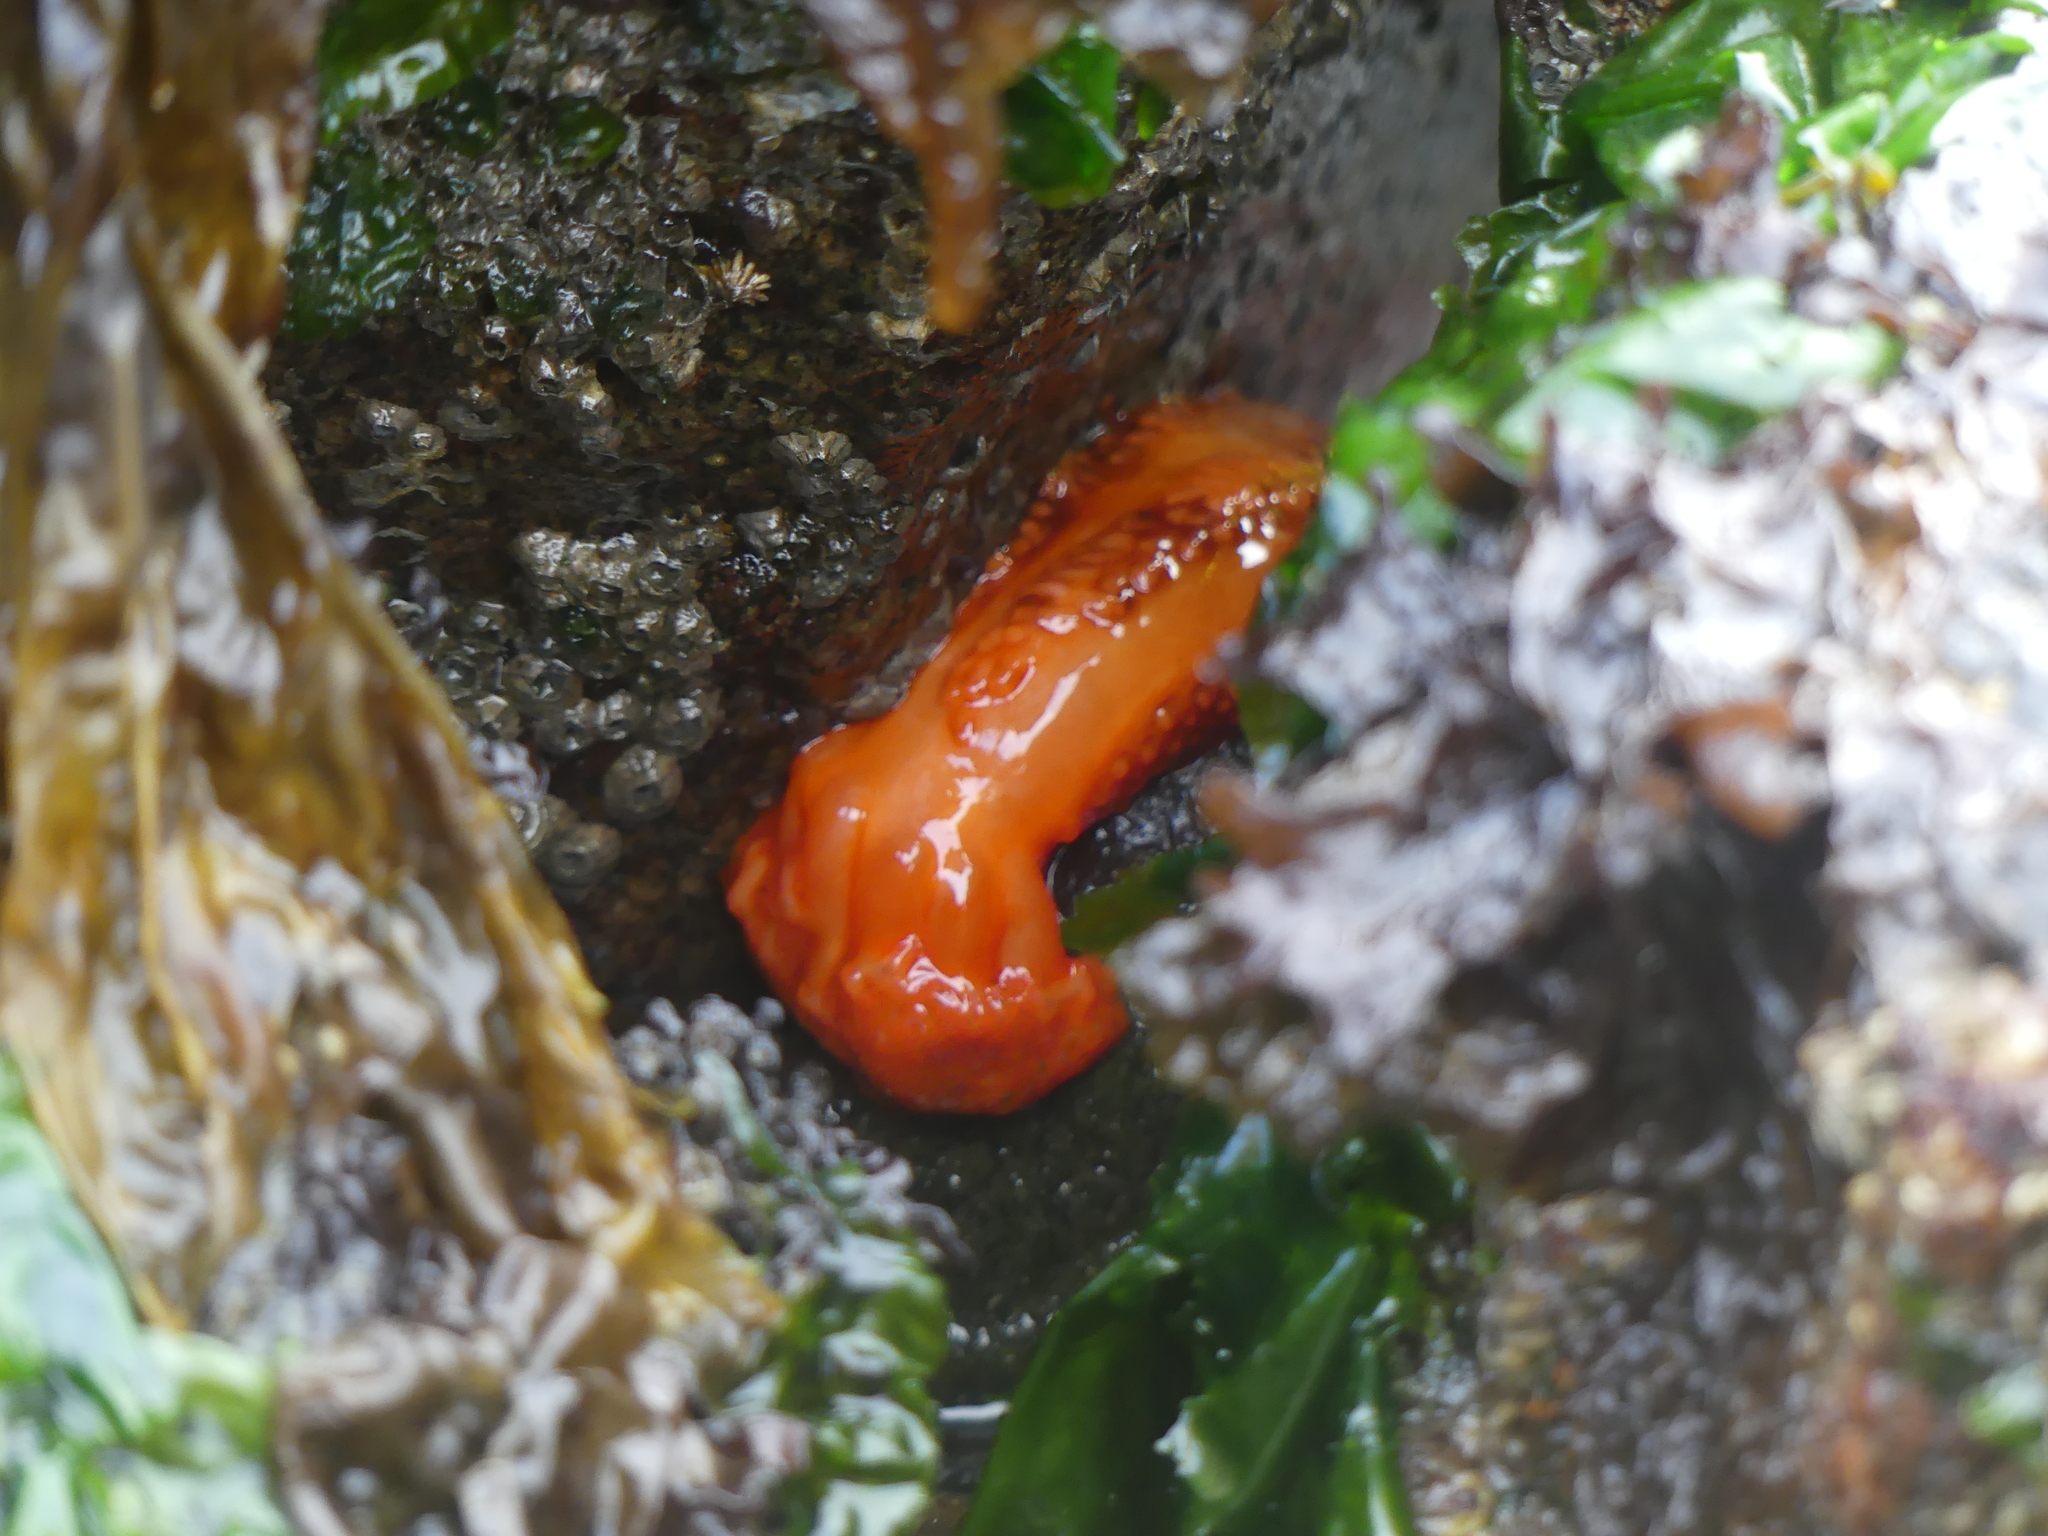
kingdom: Animalia
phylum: Echinodermata
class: Holothuroidea
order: Dendrochirotida
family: Cucumariidae
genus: Cucumaria
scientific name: Cucumaria miniata
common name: Orange sea cucumber
